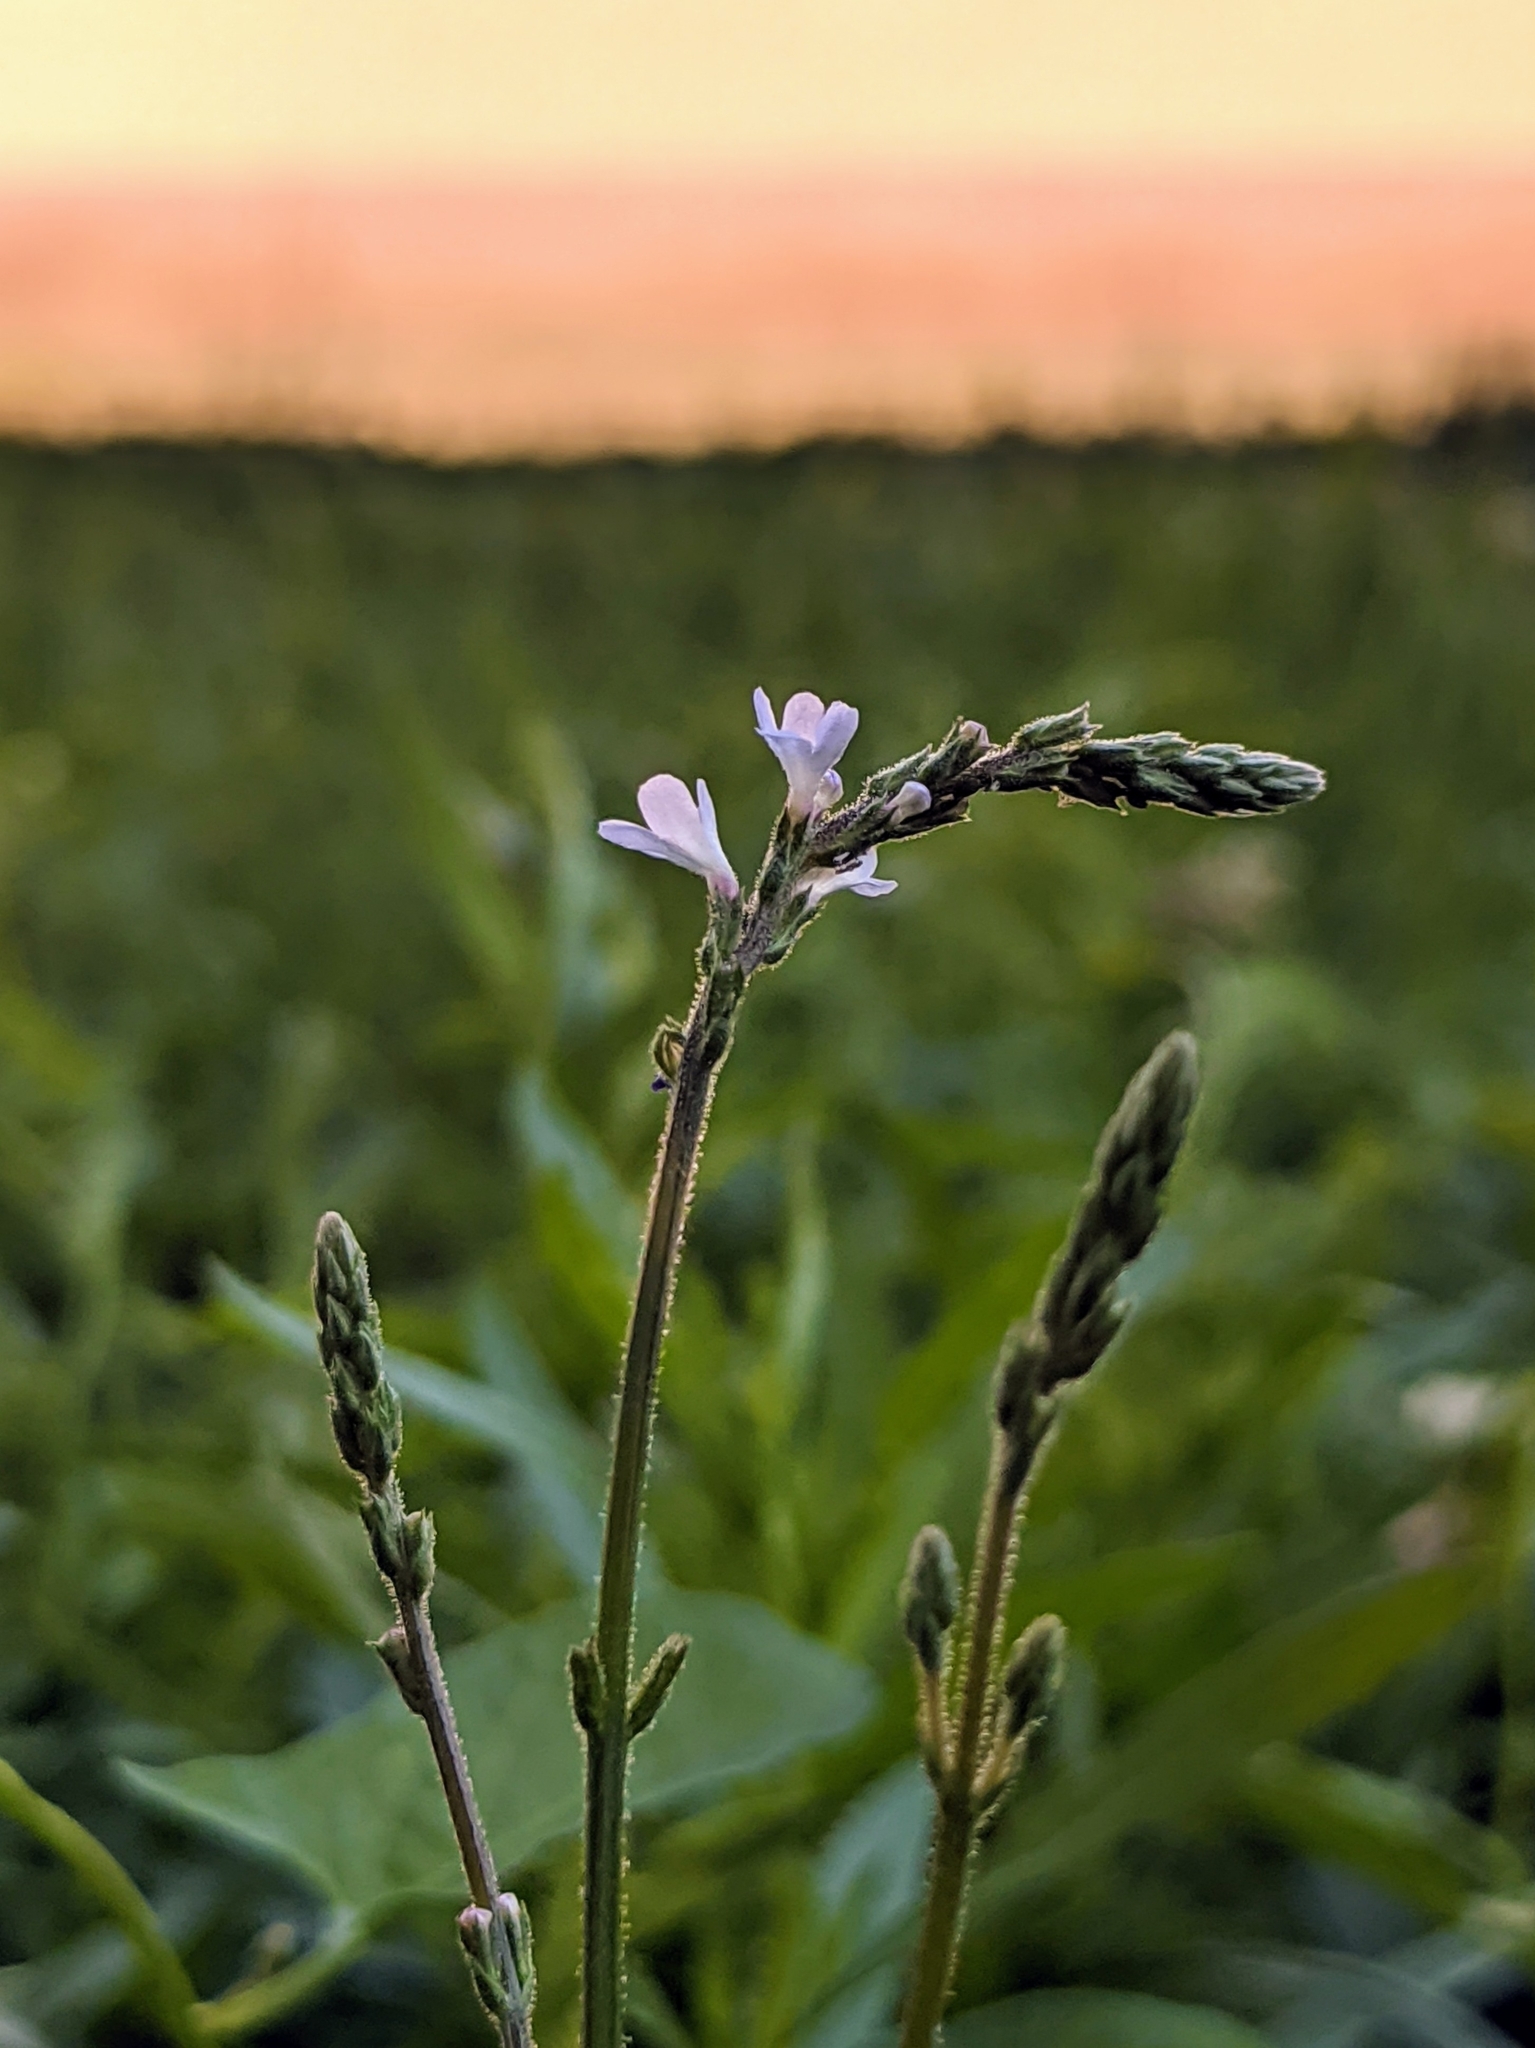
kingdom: Plantae
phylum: Tracheophyta
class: Magnoliopsida
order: Lamiales
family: Verbenaceae
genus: Verbena
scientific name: Verbena officinalis
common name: Vervain
